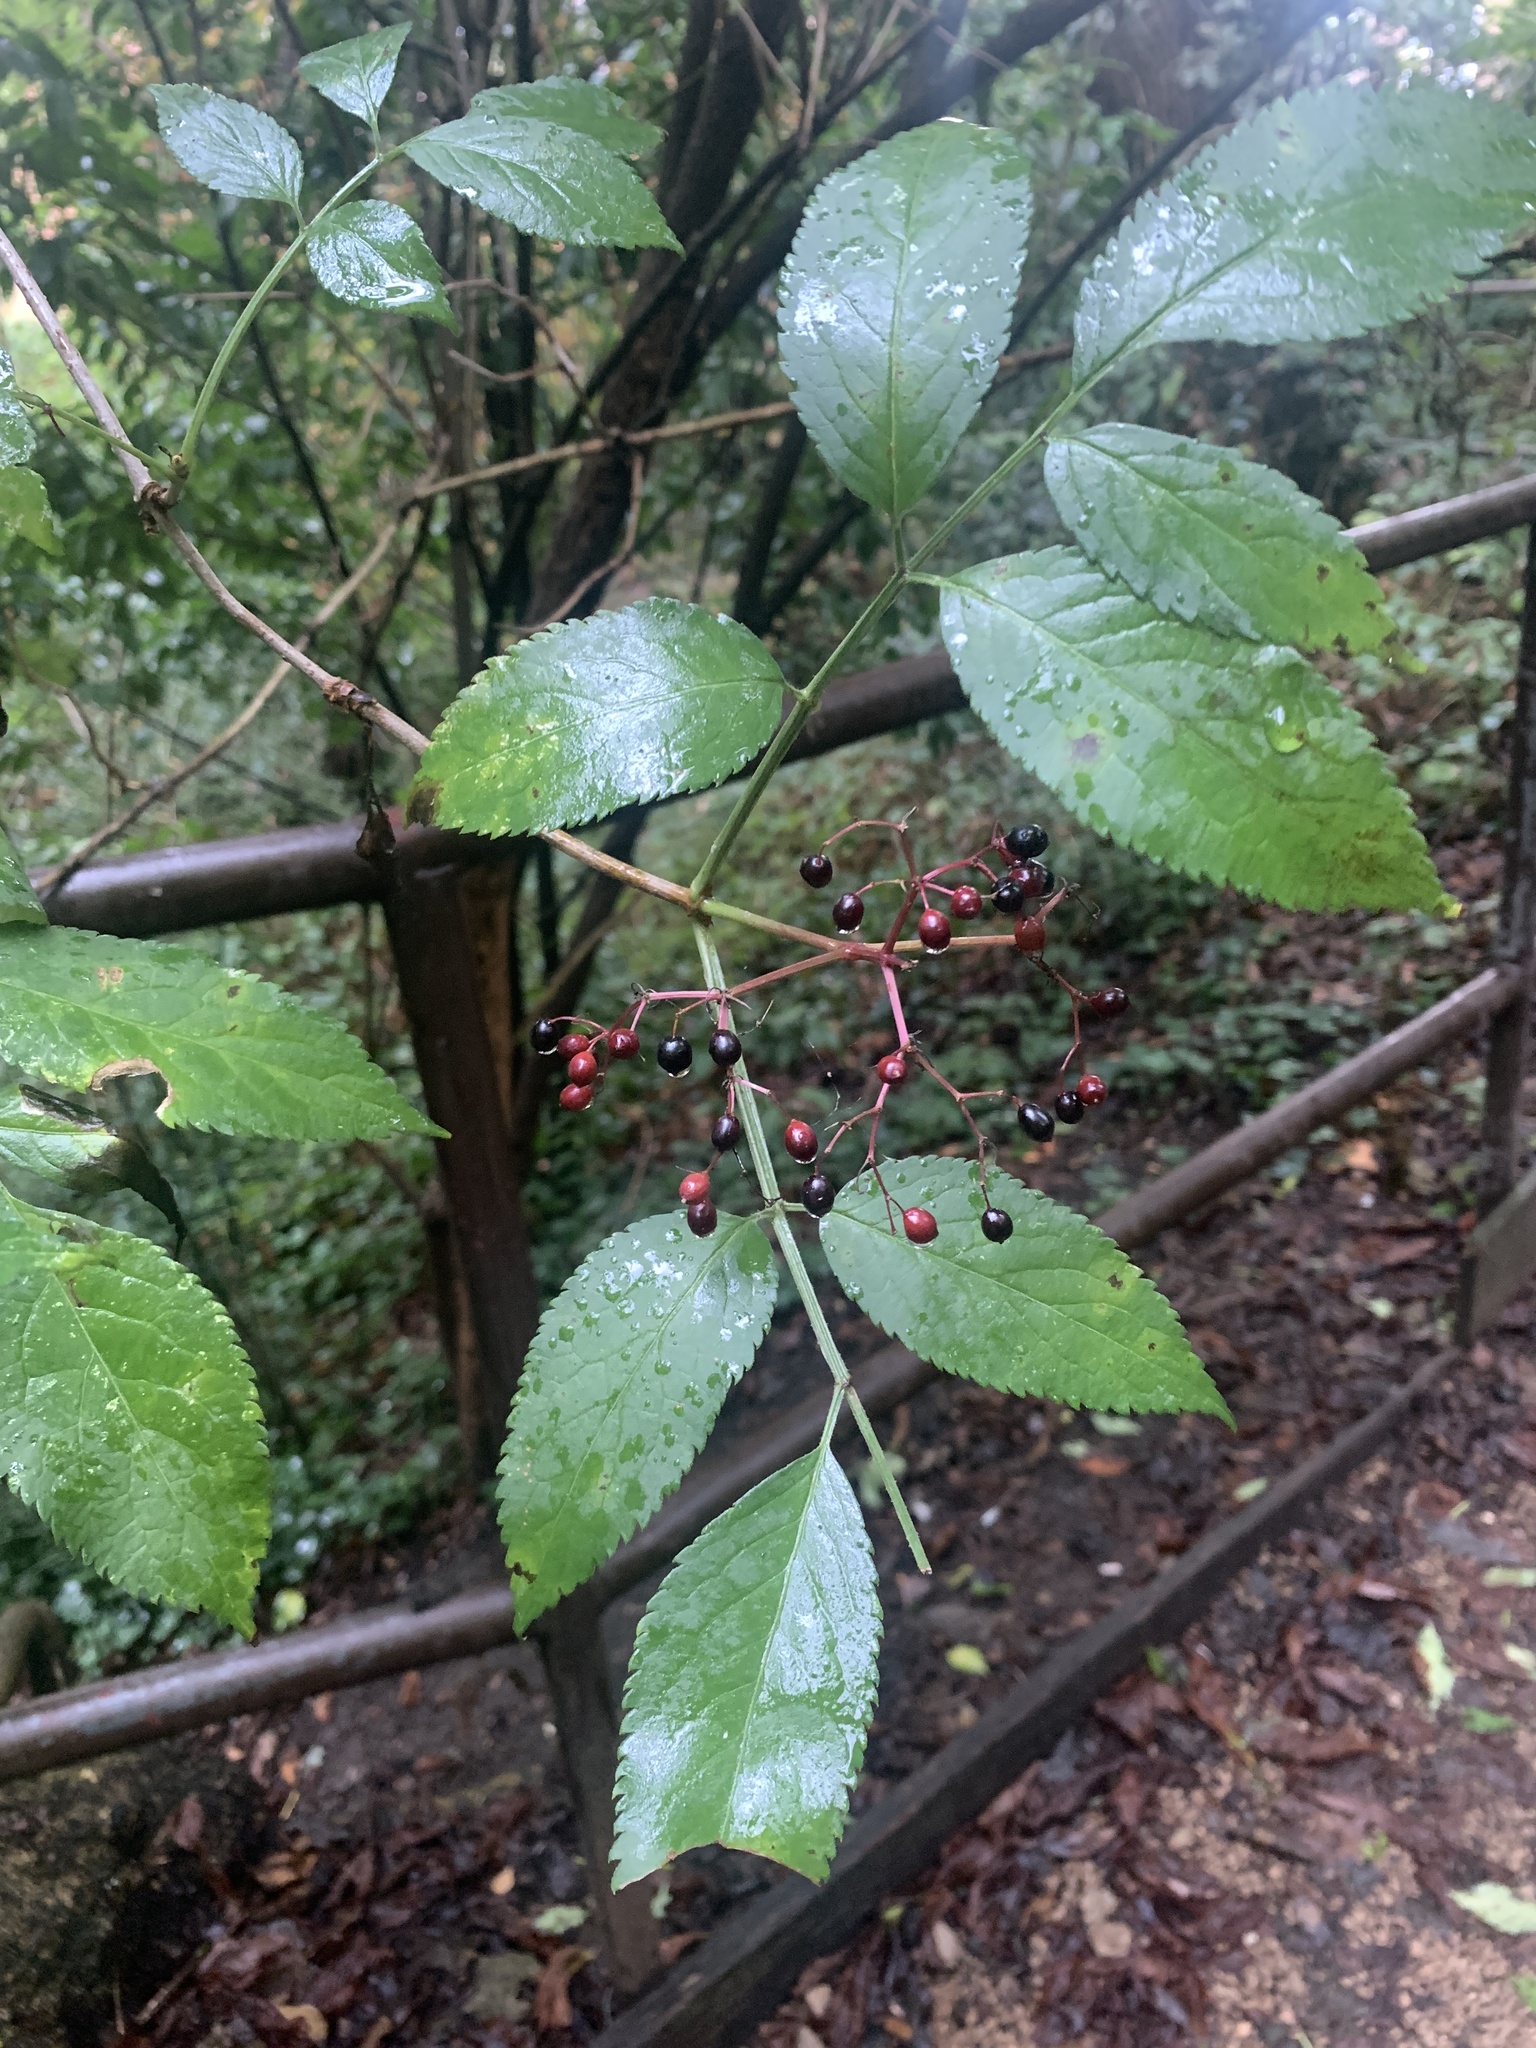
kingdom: Plantae
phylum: Tracheophyta
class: Magnoliopsida
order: Dipsacales
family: Viburnaceae
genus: Sambucus
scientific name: Sambucus nigra
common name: Elder
